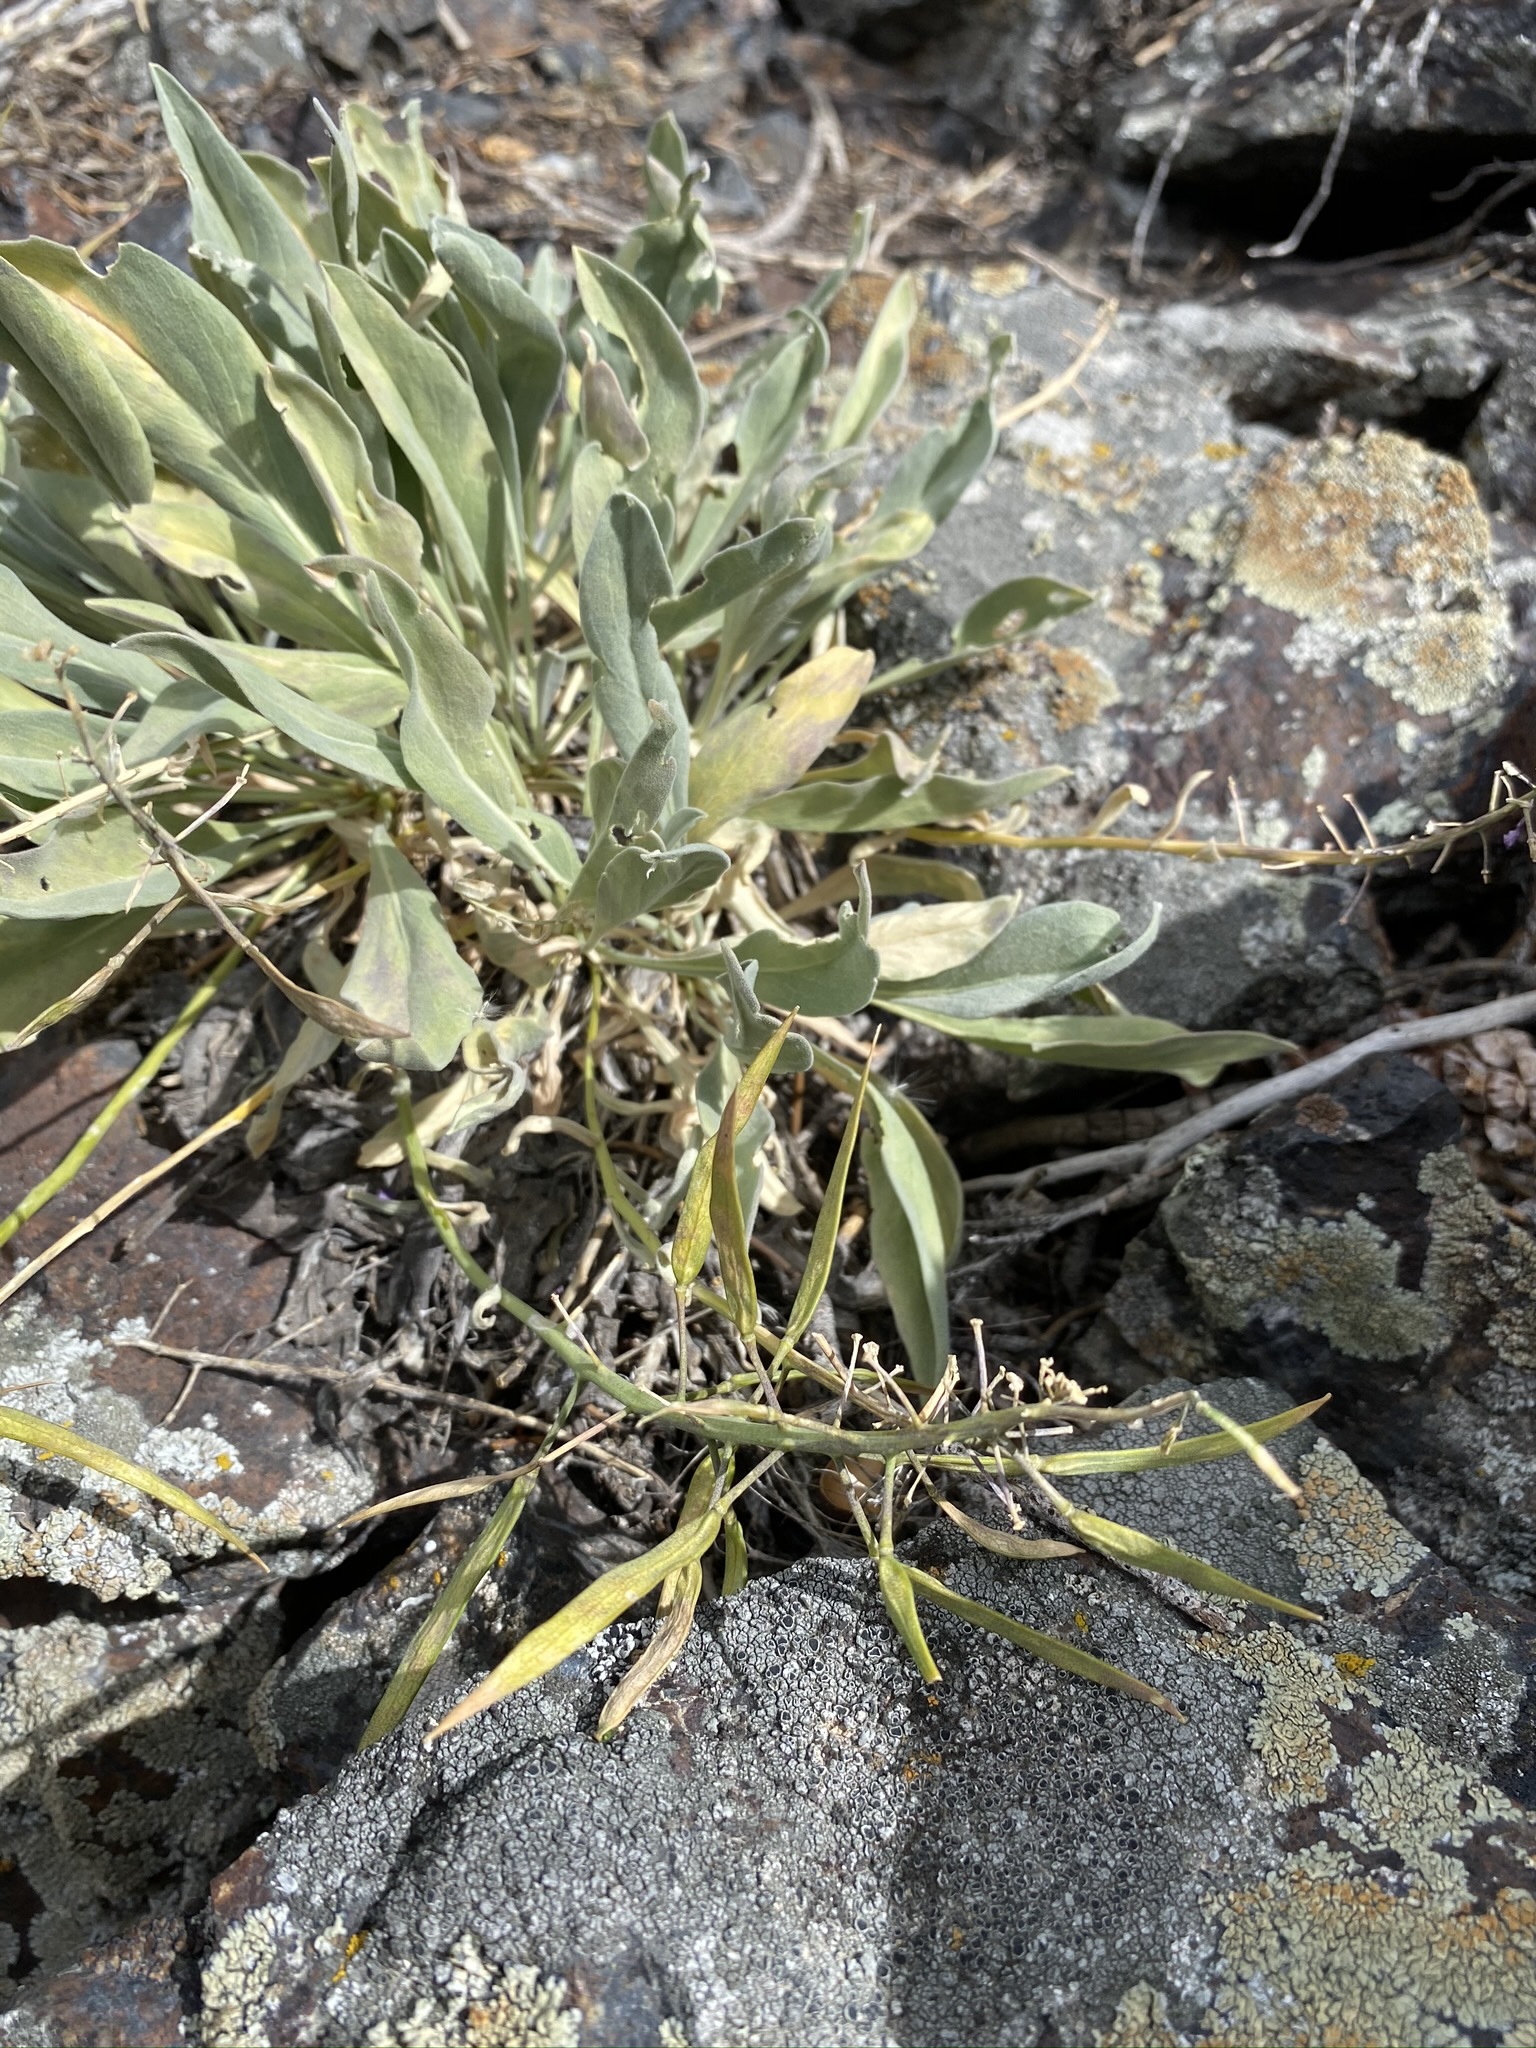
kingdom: Plantae
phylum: Tracheophyta
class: Magnoliopsida
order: Brassicales
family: Brassicaceae
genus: Phoenicaulis
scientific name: Phoenicaulis cheiranthoides
